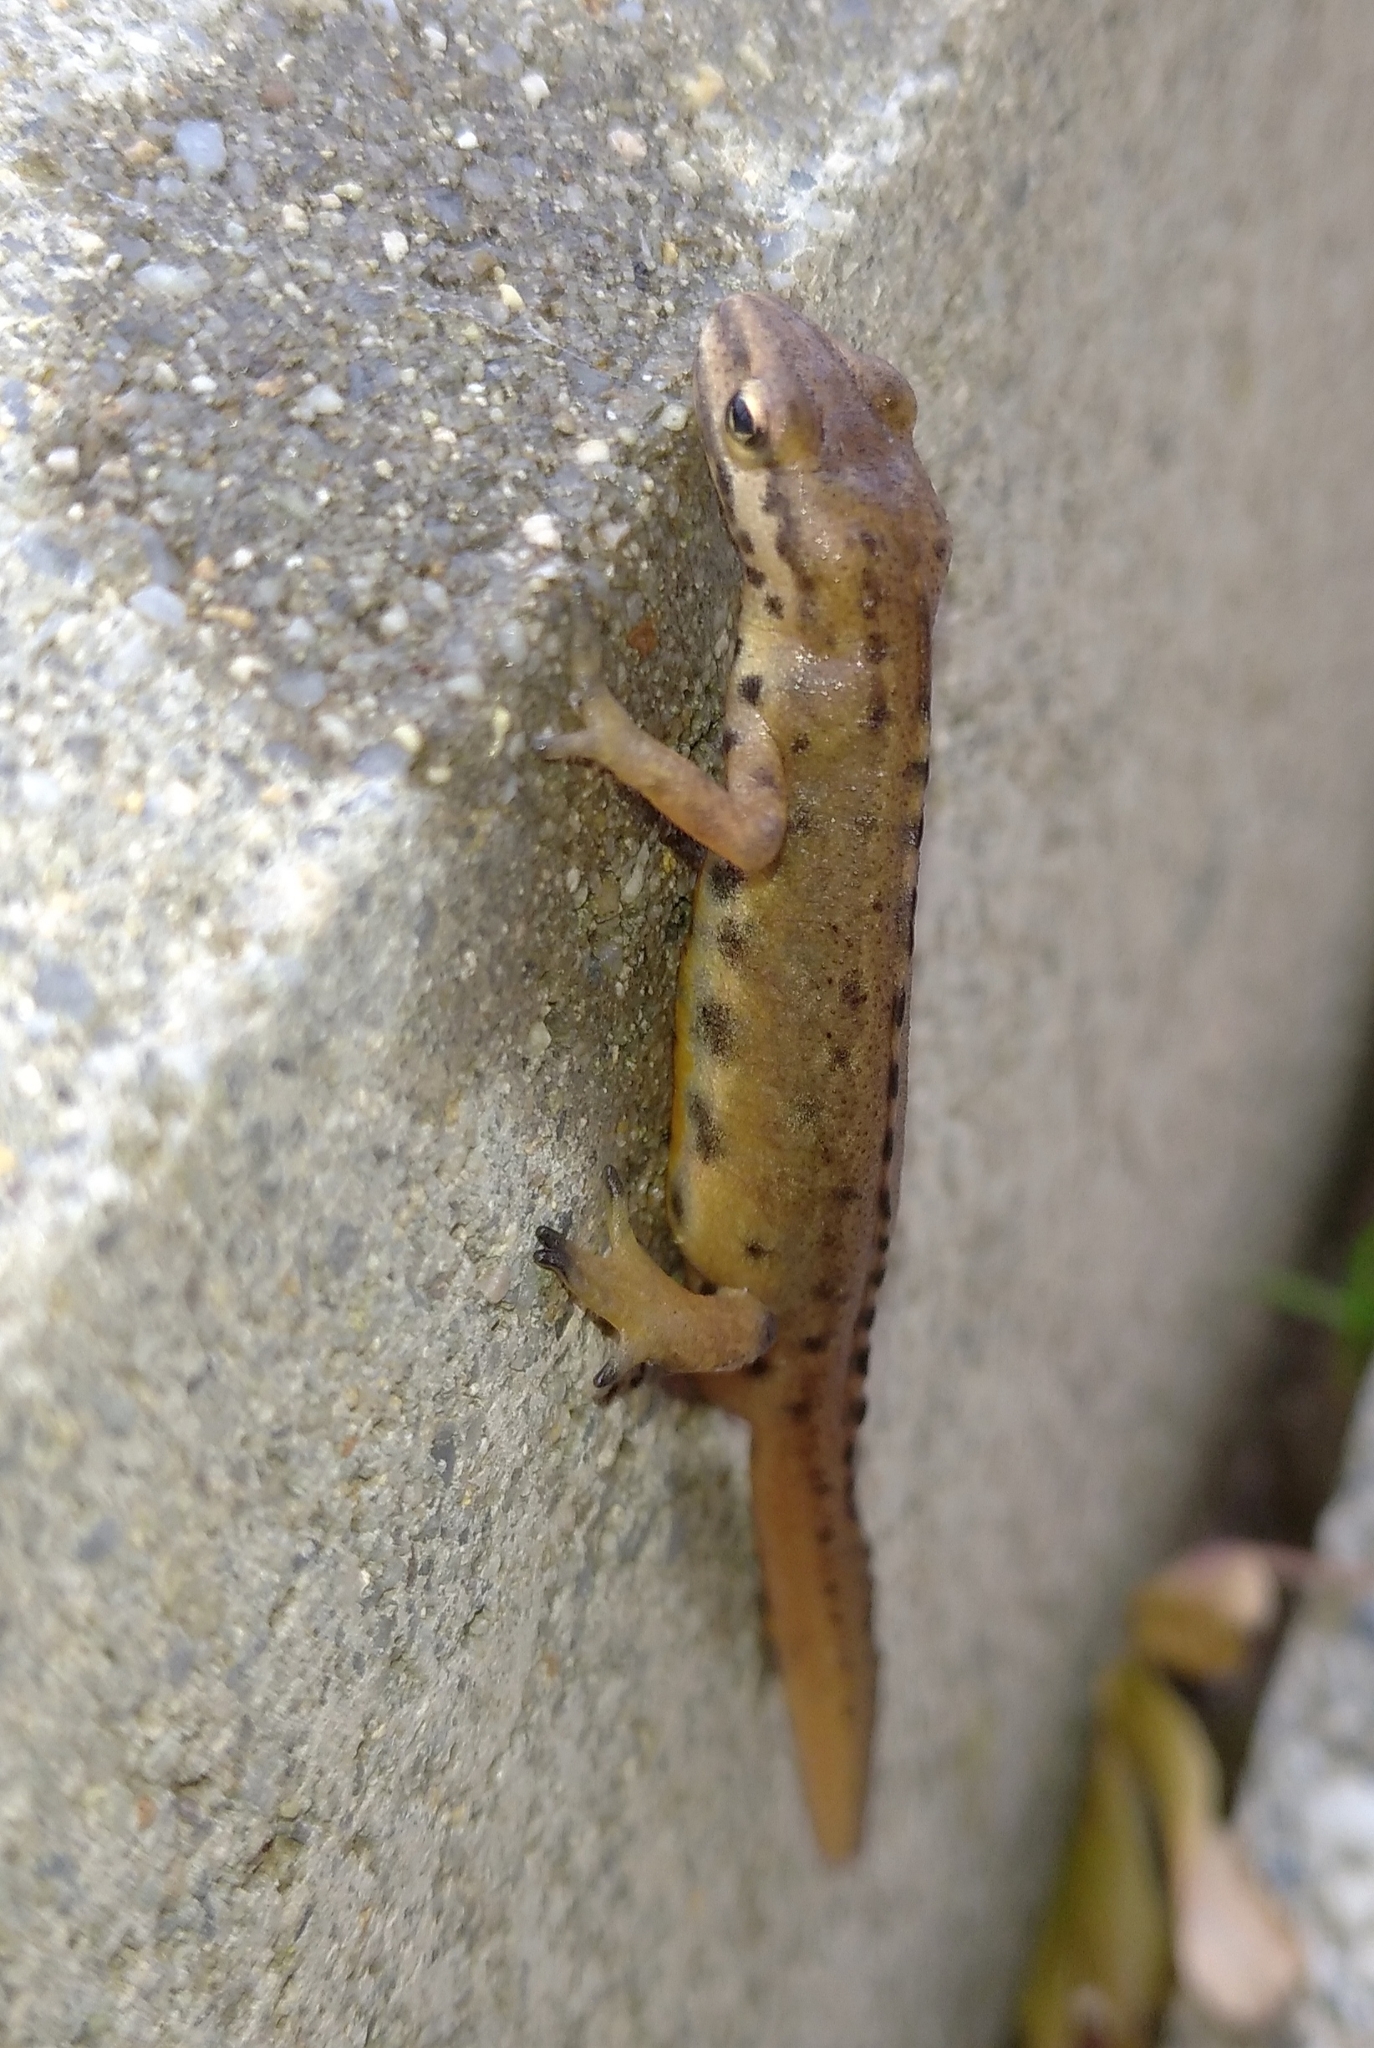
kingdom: Animalia
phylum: Chordata
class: Amphibia
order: Caudata
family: Salamandridae
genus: Lissotriton
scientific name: Lissotriton schmidtleri
